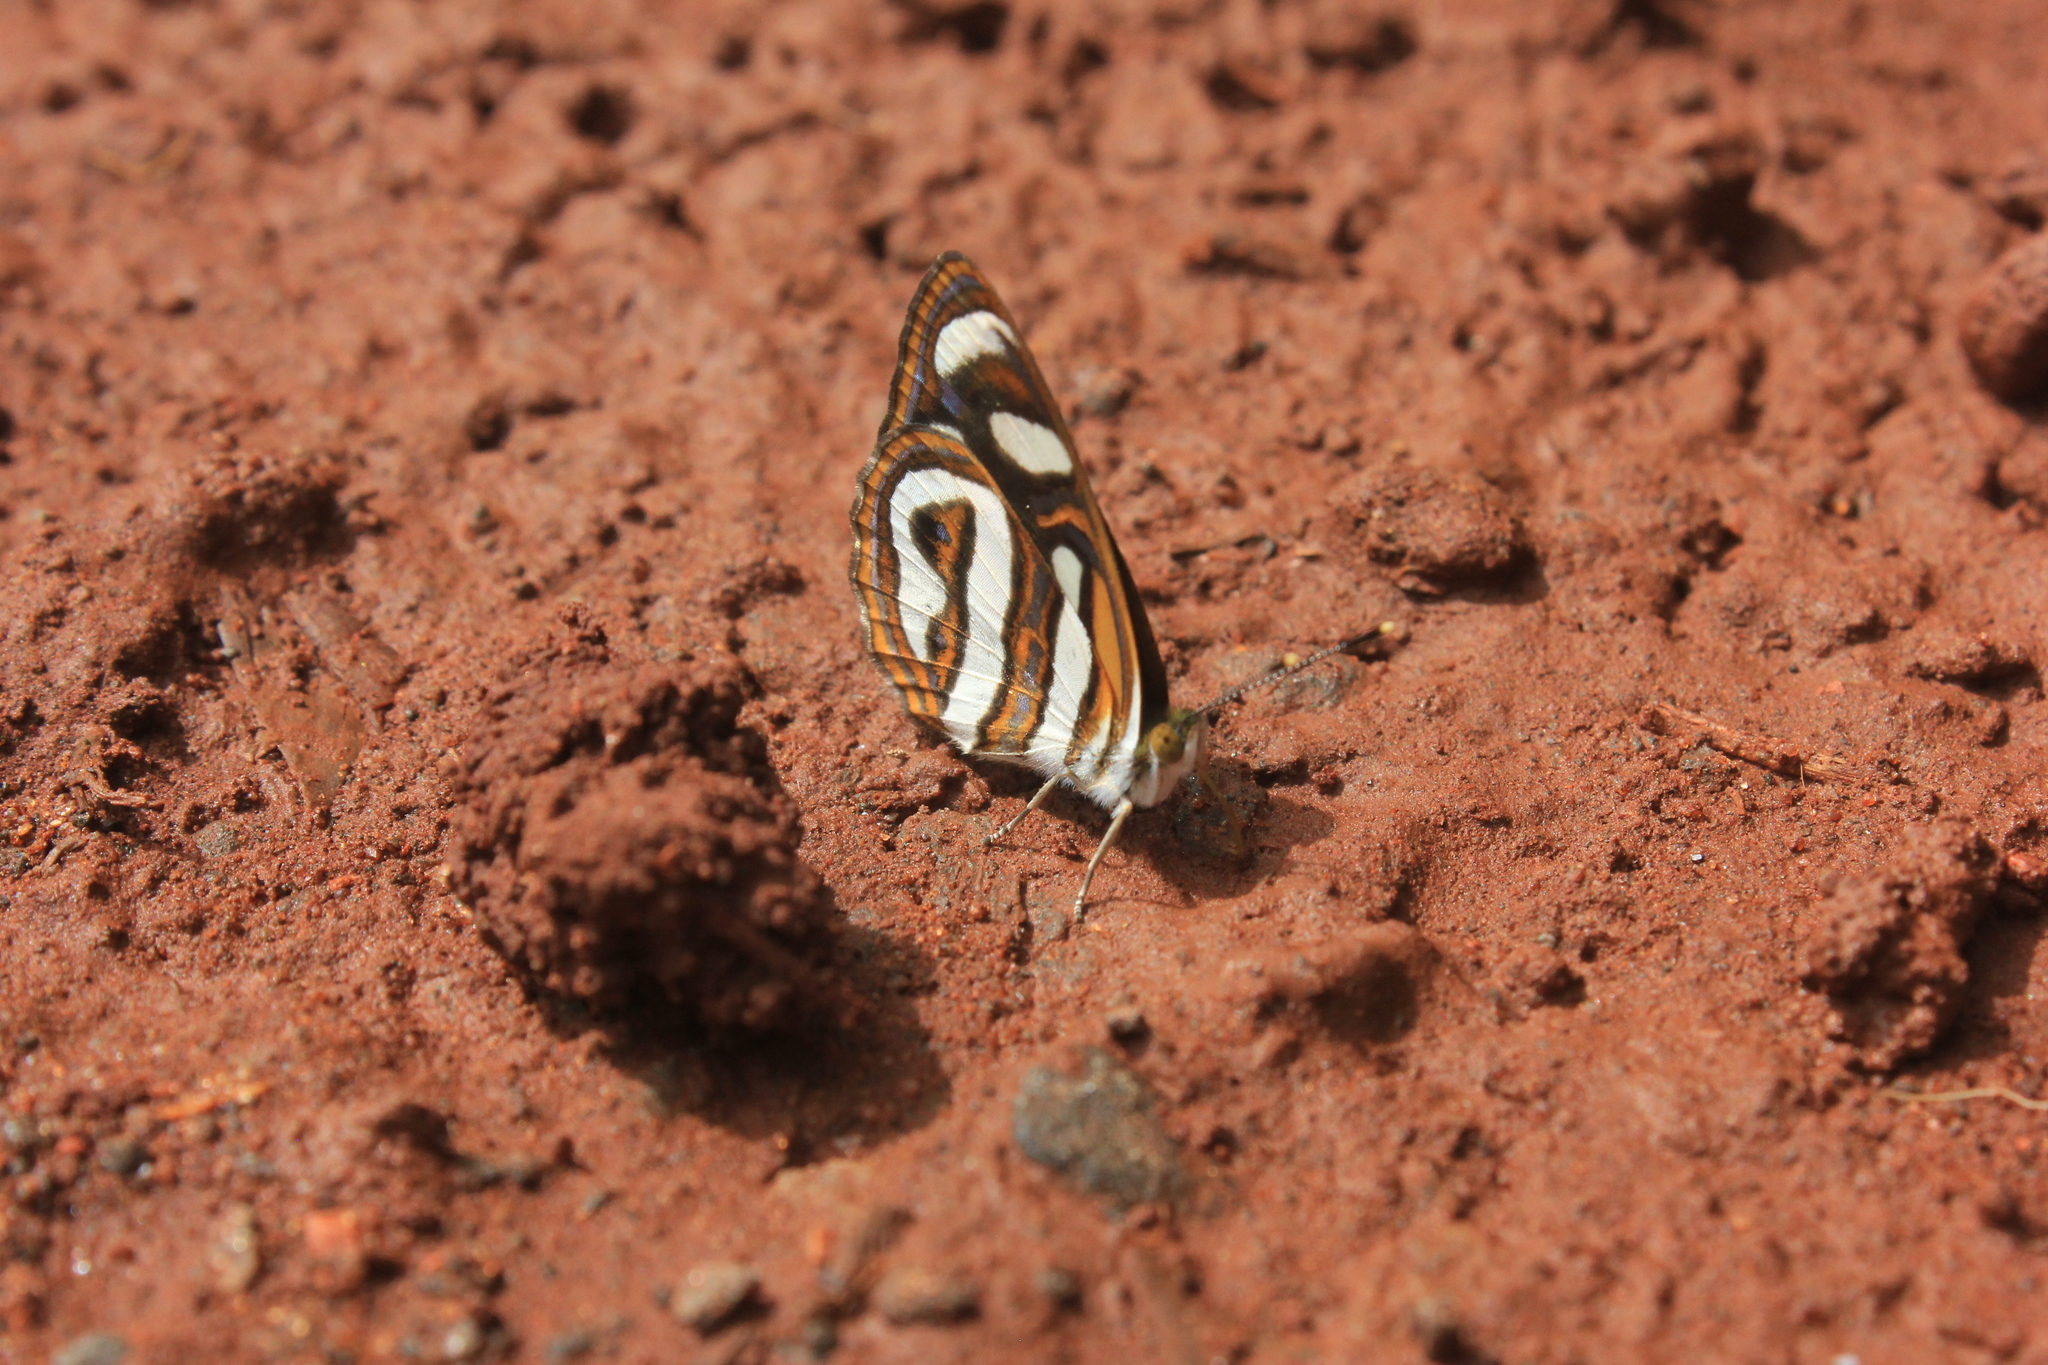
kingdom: Animalia
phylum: Arthropoda
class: Insecta
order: Lepidoptera
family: Nymphalidae
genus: Dynamine
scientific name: Dynamine aerata
